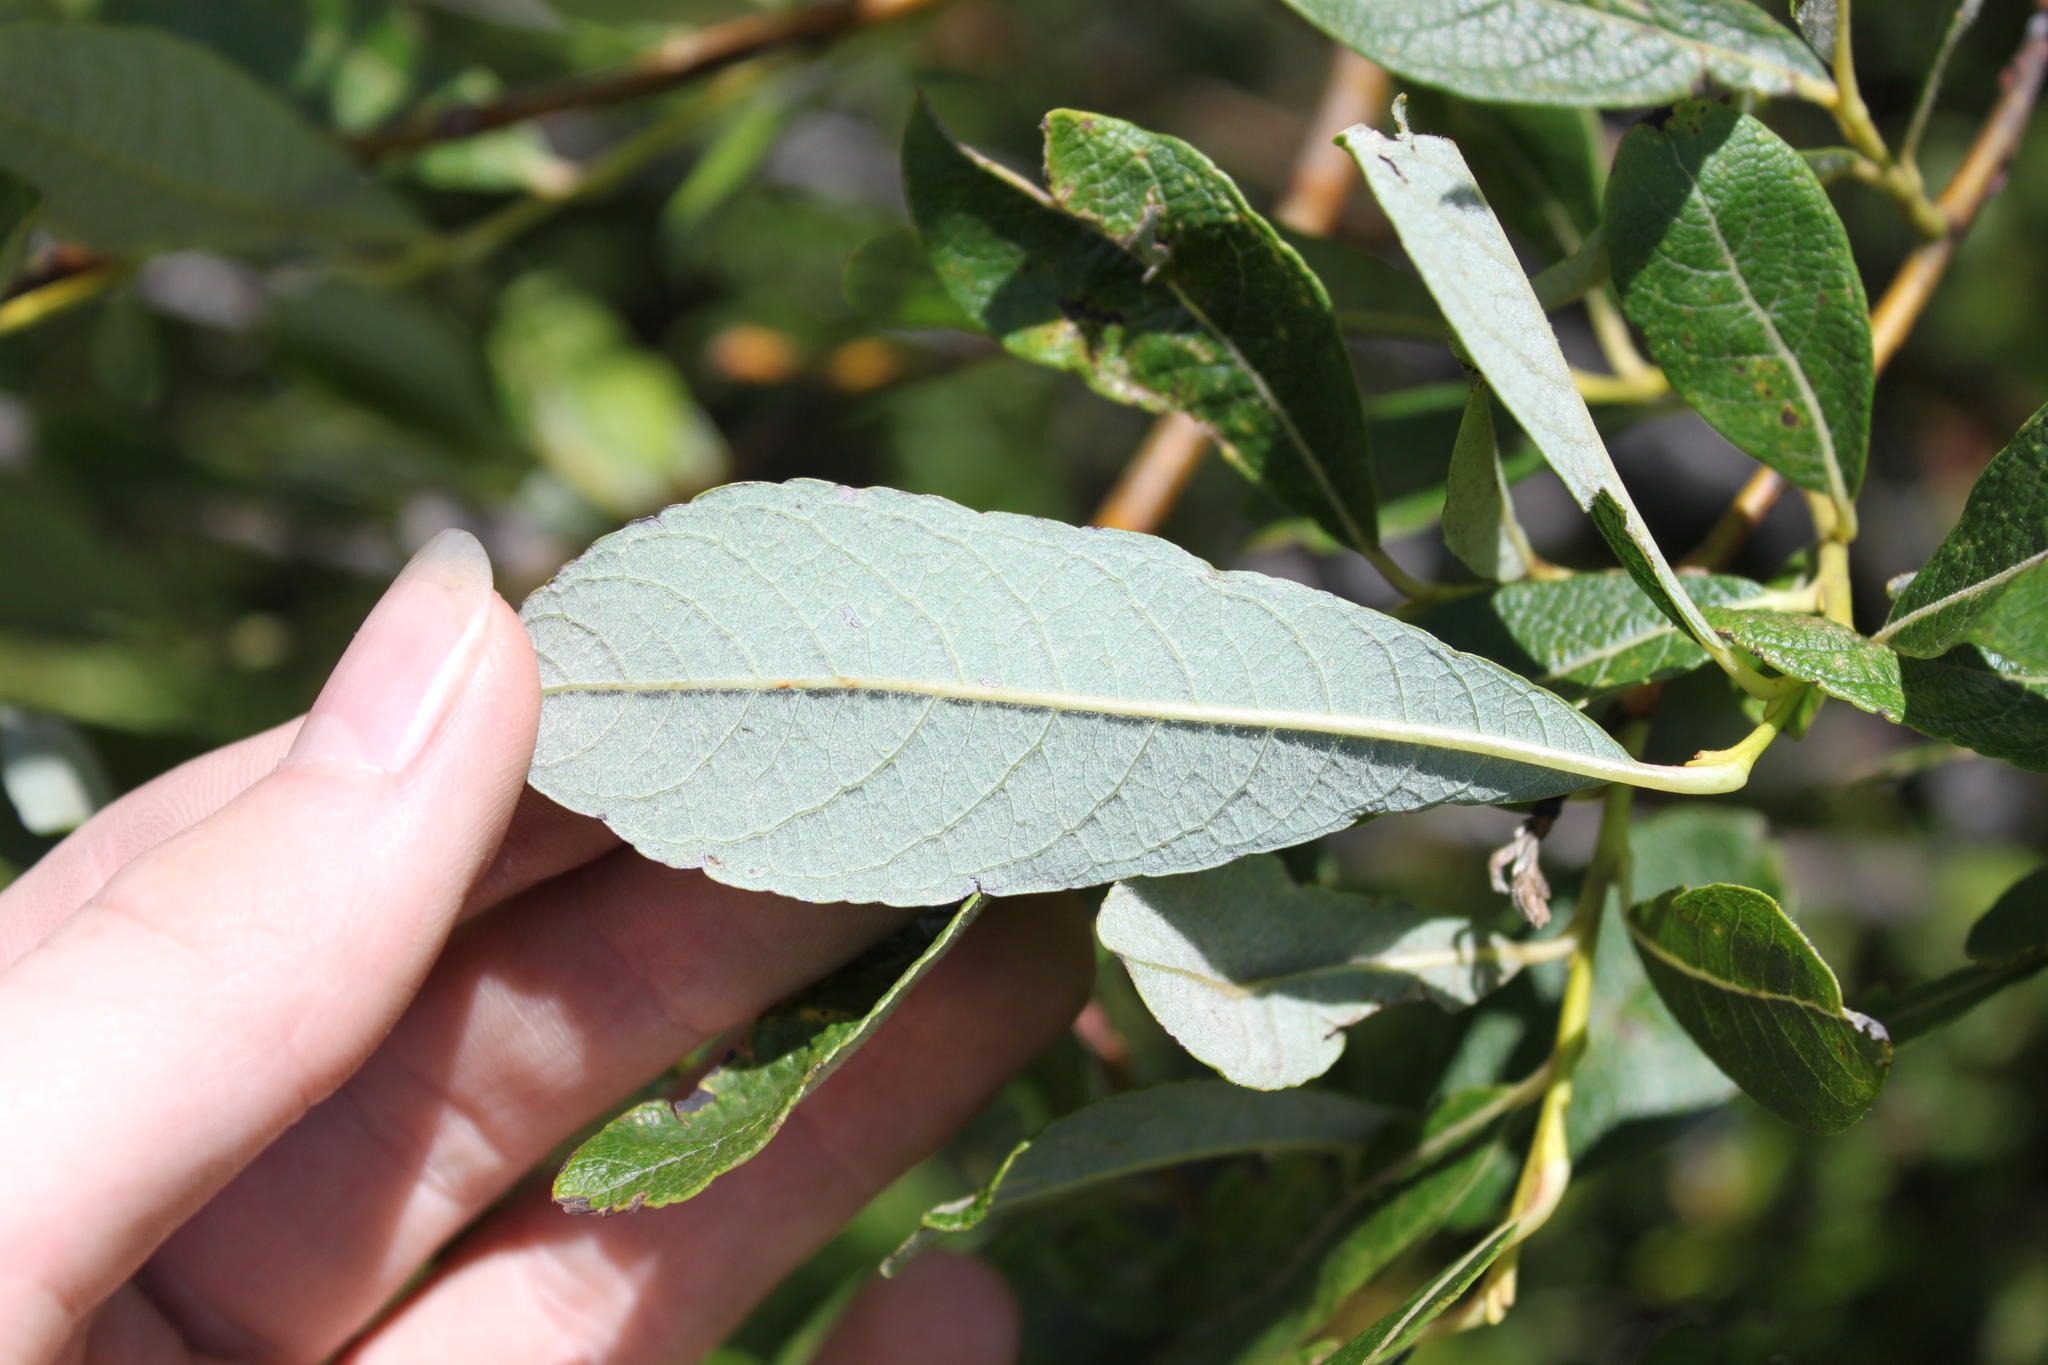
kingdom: Plantae
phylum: Tracheophyta
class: Magnoliopsida
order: Malpighiales
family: Salicaceae
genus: Salix
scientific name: Salix bebbiana
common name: Bebb's willow
